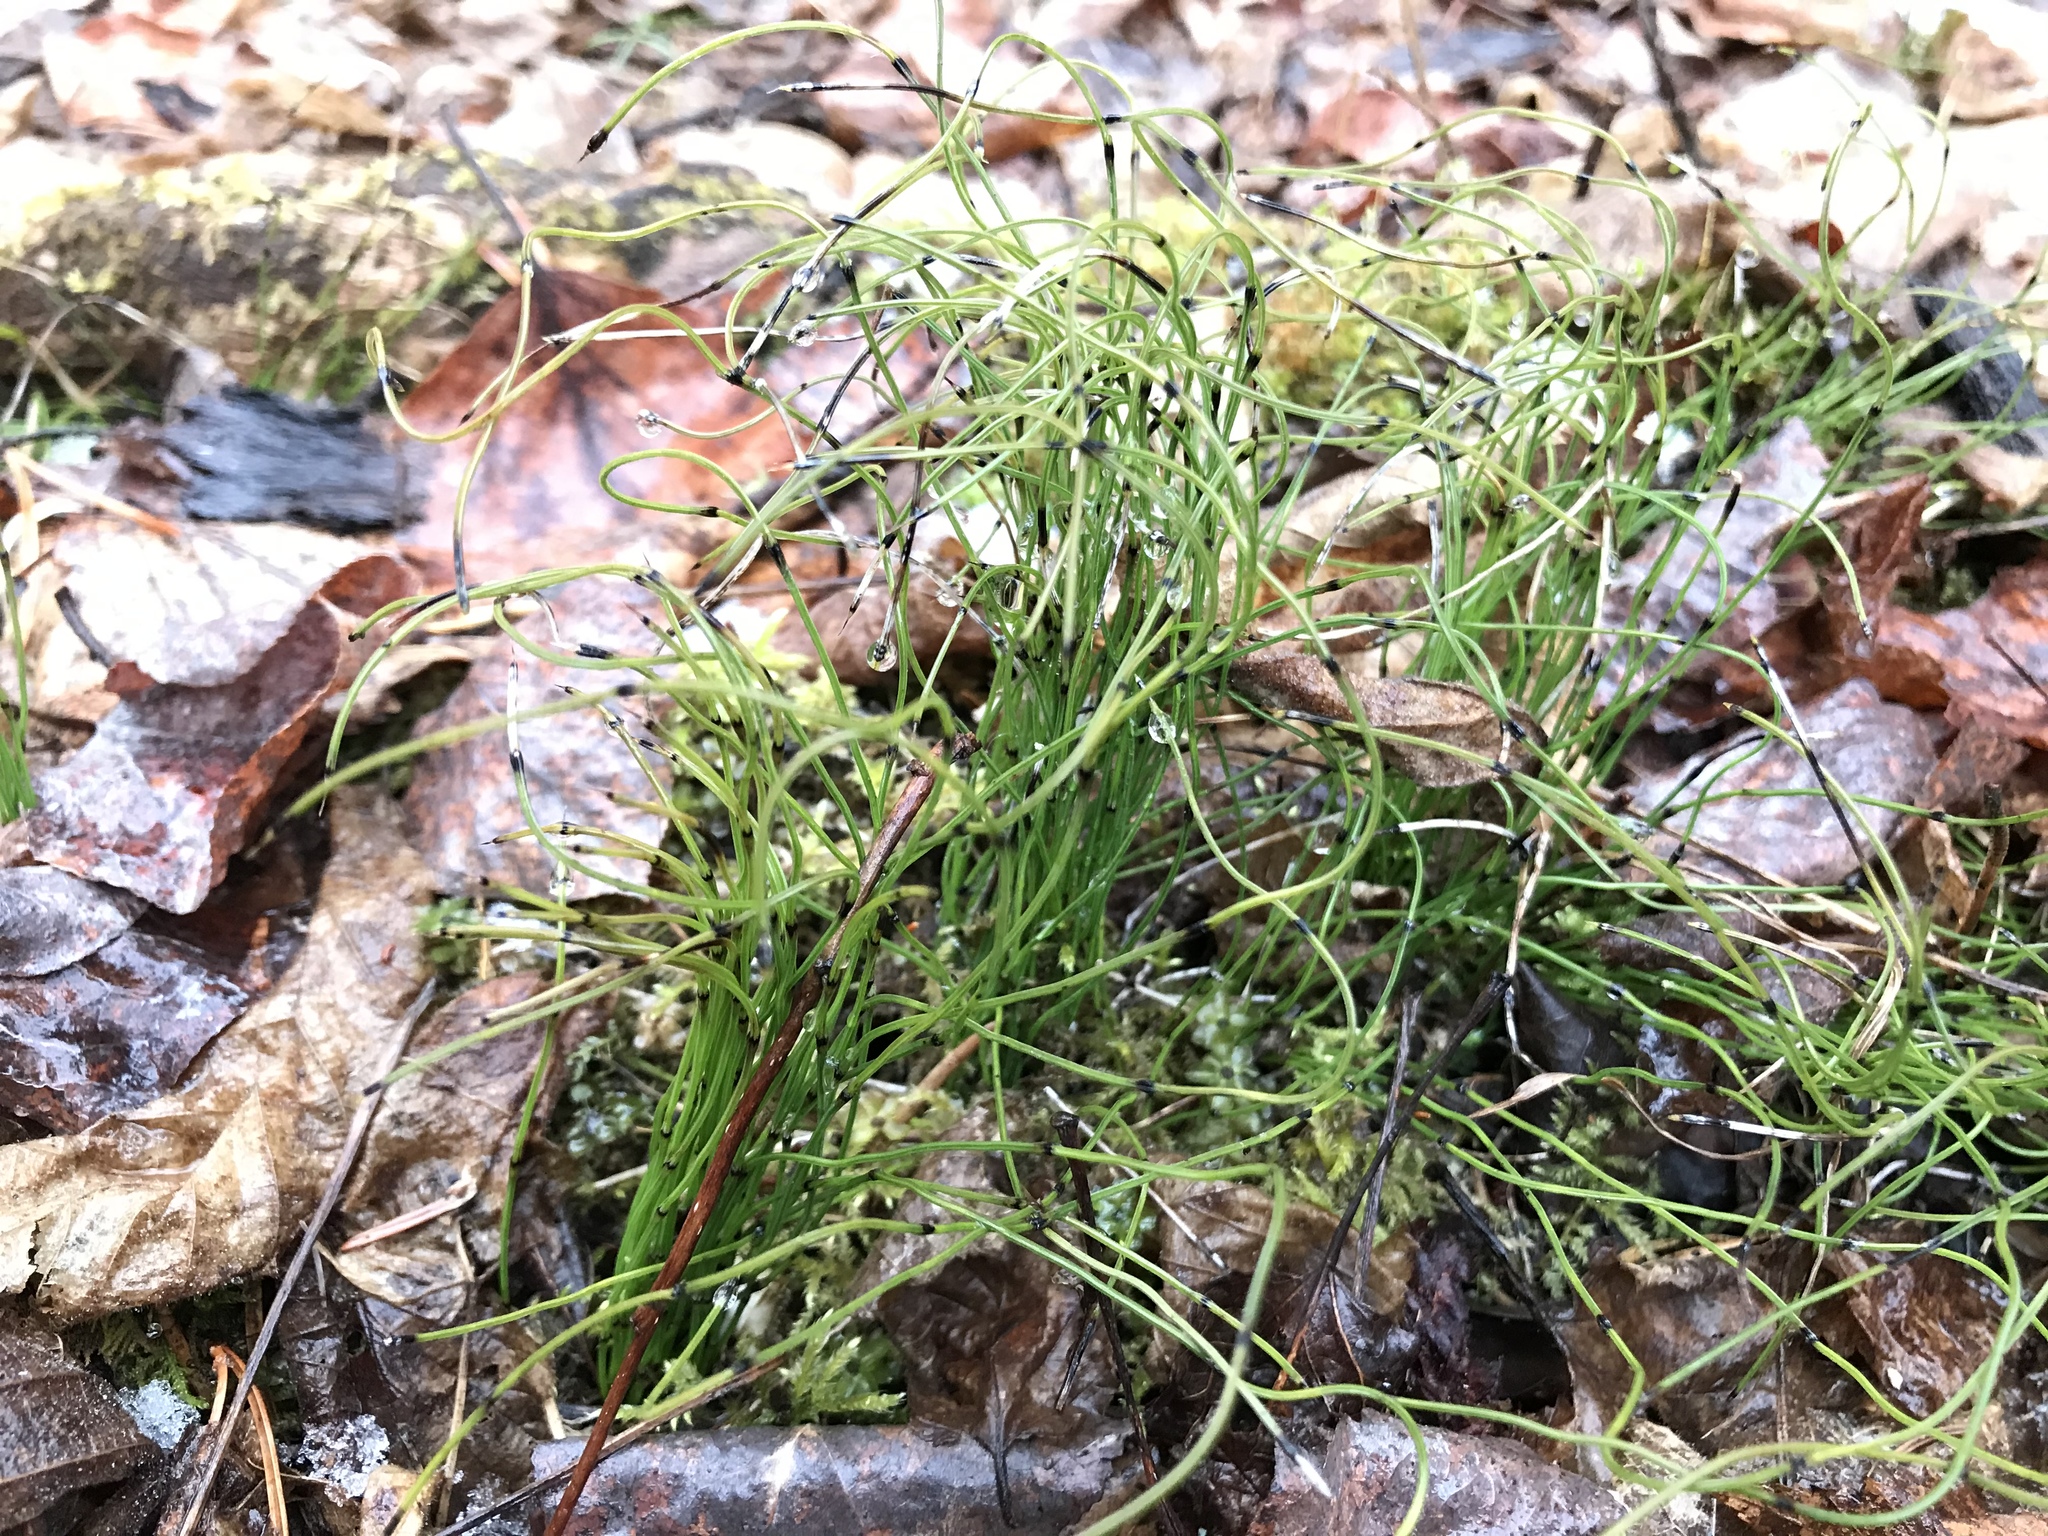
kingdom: Plantae
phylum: Tracheophyta
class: Polypodiopsida
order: Equisetales
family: Equisetaceae
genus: Equisetum
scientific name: Equisetum scirpoides
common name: Delicate horsetail
